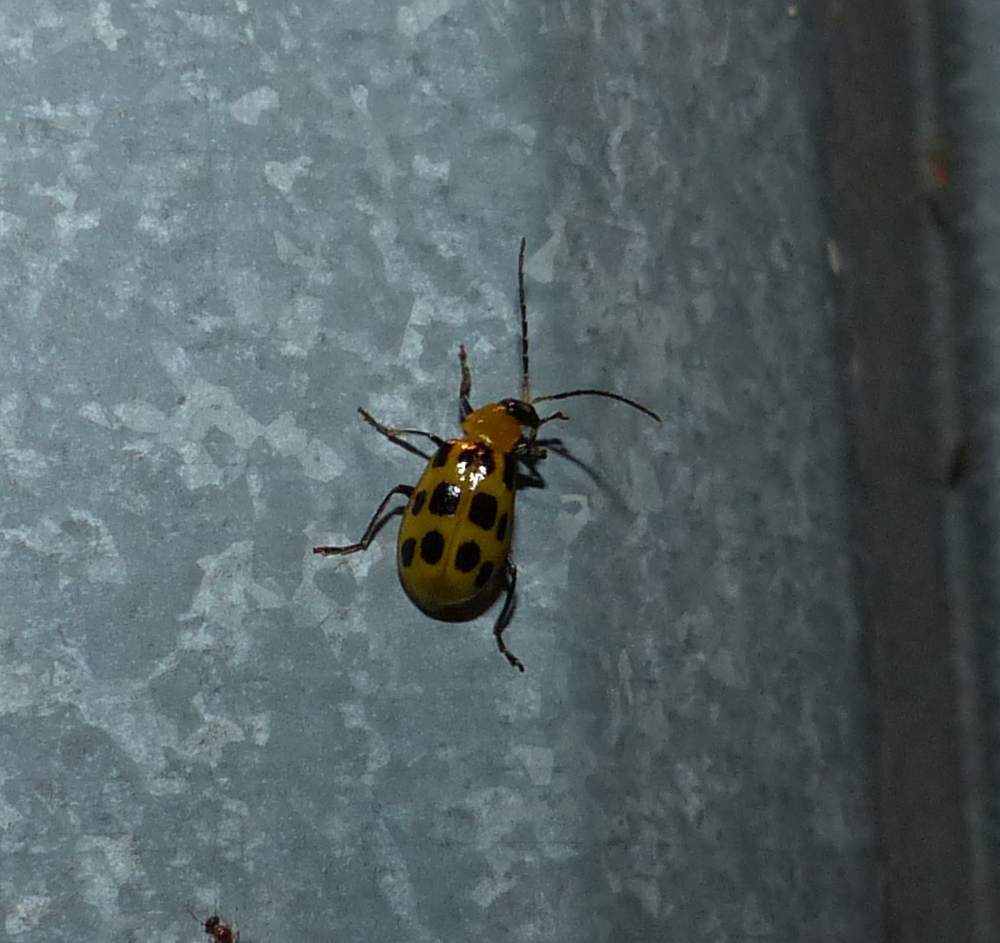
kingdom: Animalia
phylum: Arthropoda
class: Insecta
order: Coleoptera
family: Chrysomelidae
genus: Diabrotica
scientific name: Diabrotica undecimpunctata
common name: Spotted cucumber beetle
